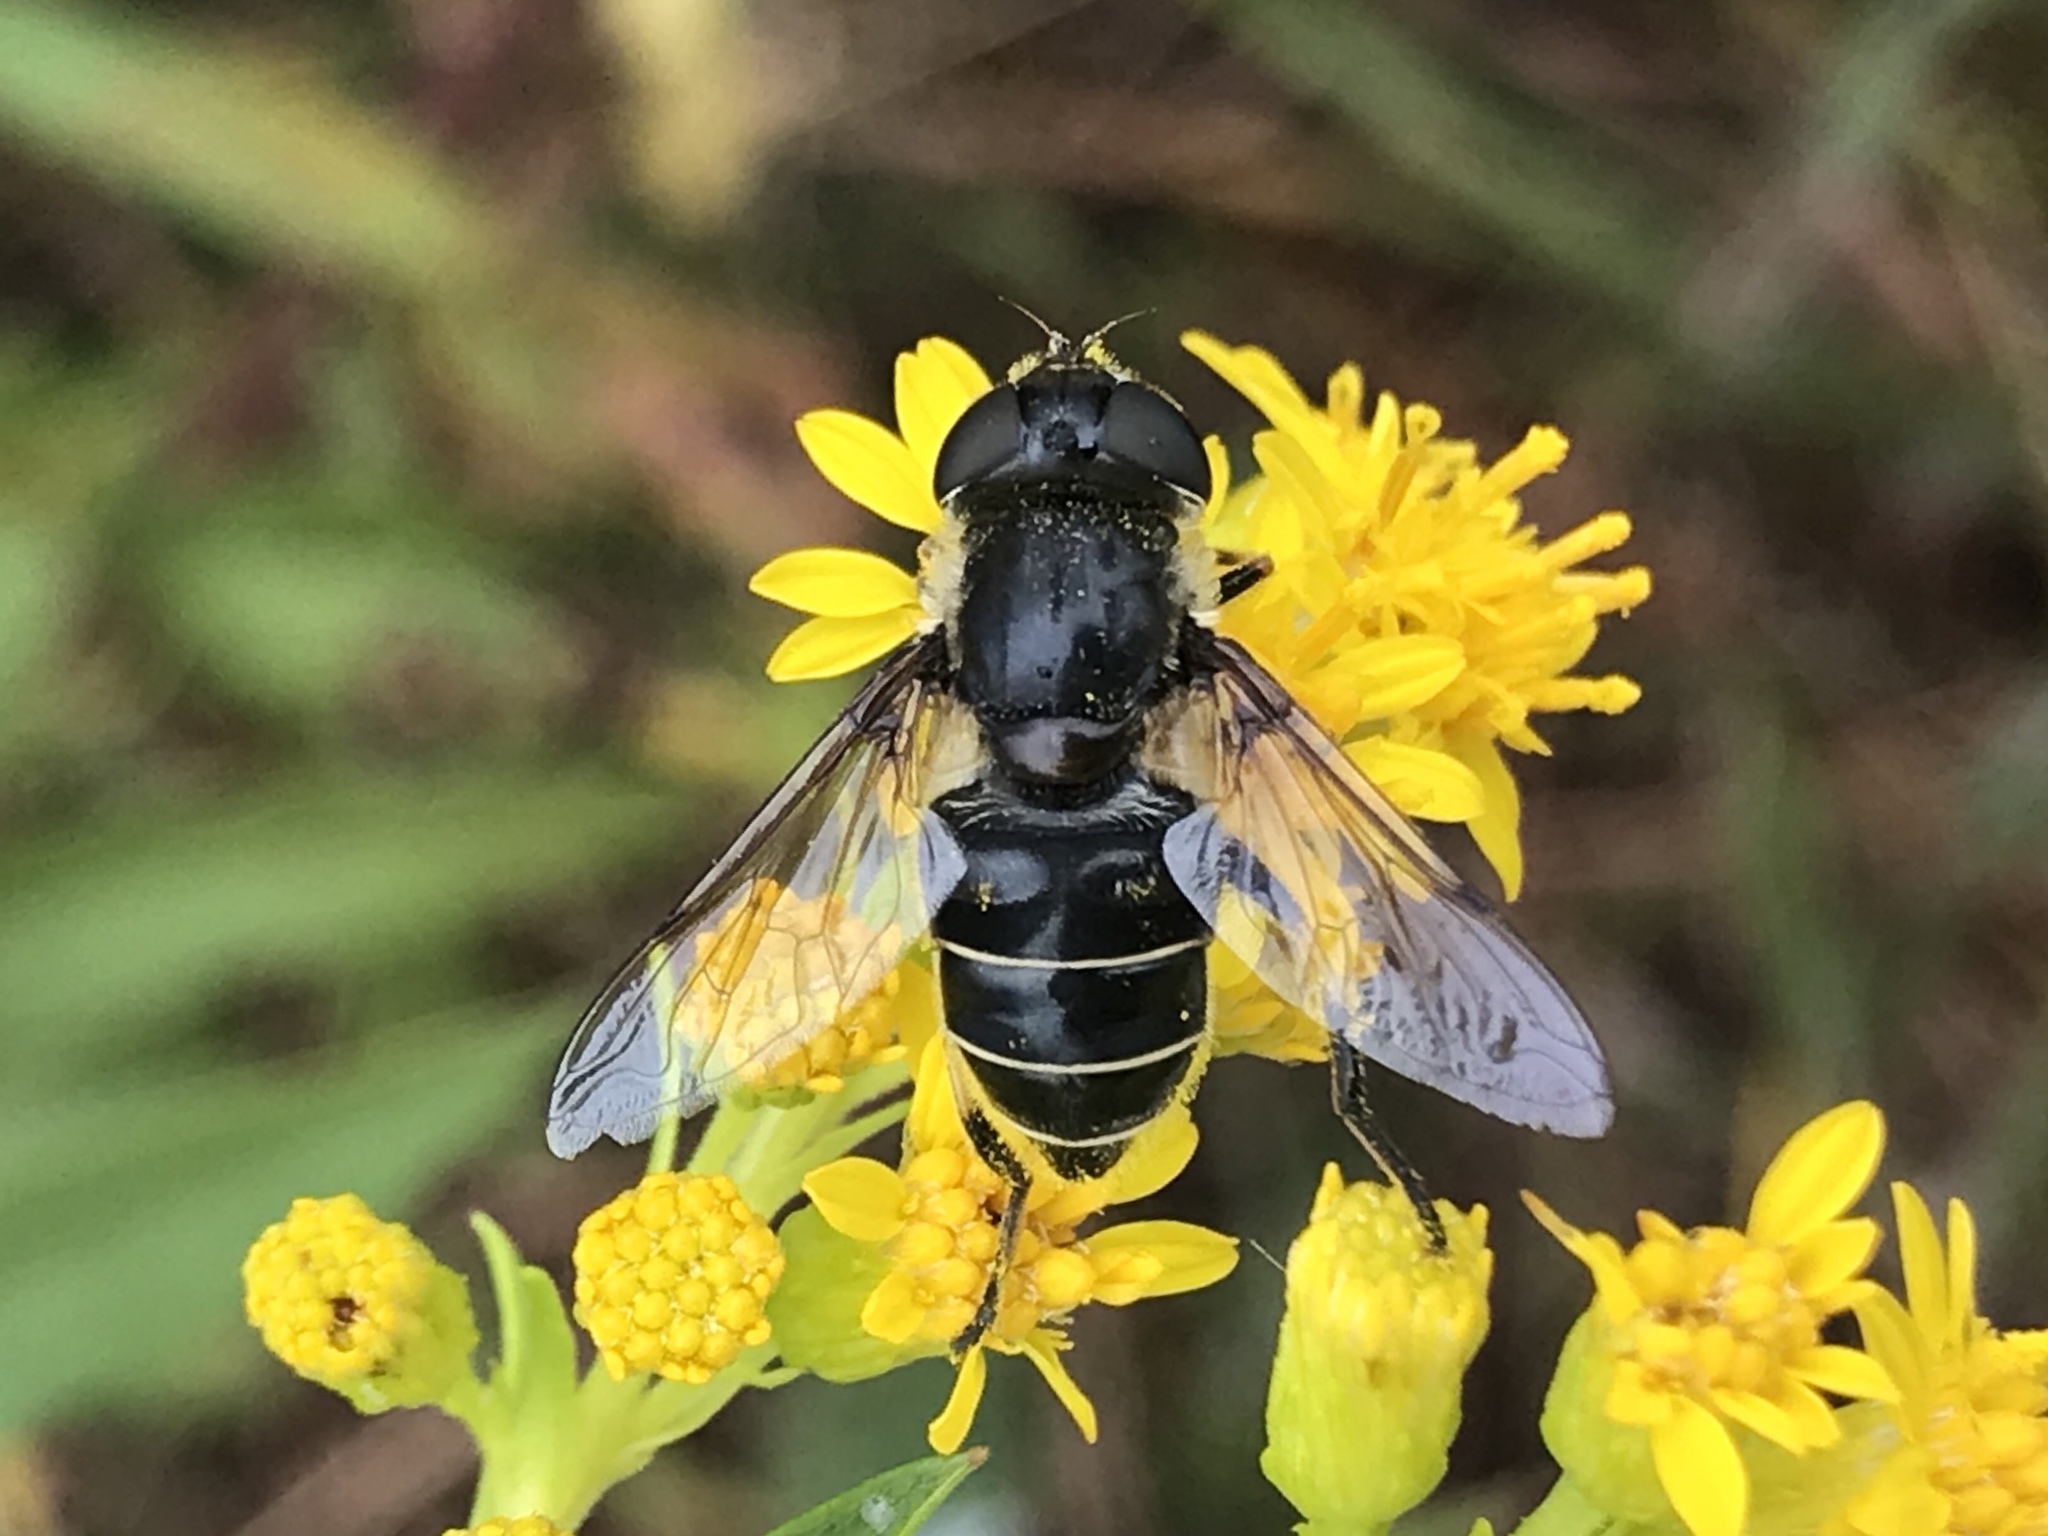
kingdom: Animalia
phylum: Arthropoda
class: Insecta
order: Diptera
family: Syrphidae
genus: Eristalis
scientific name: Eristalis dimidiata
